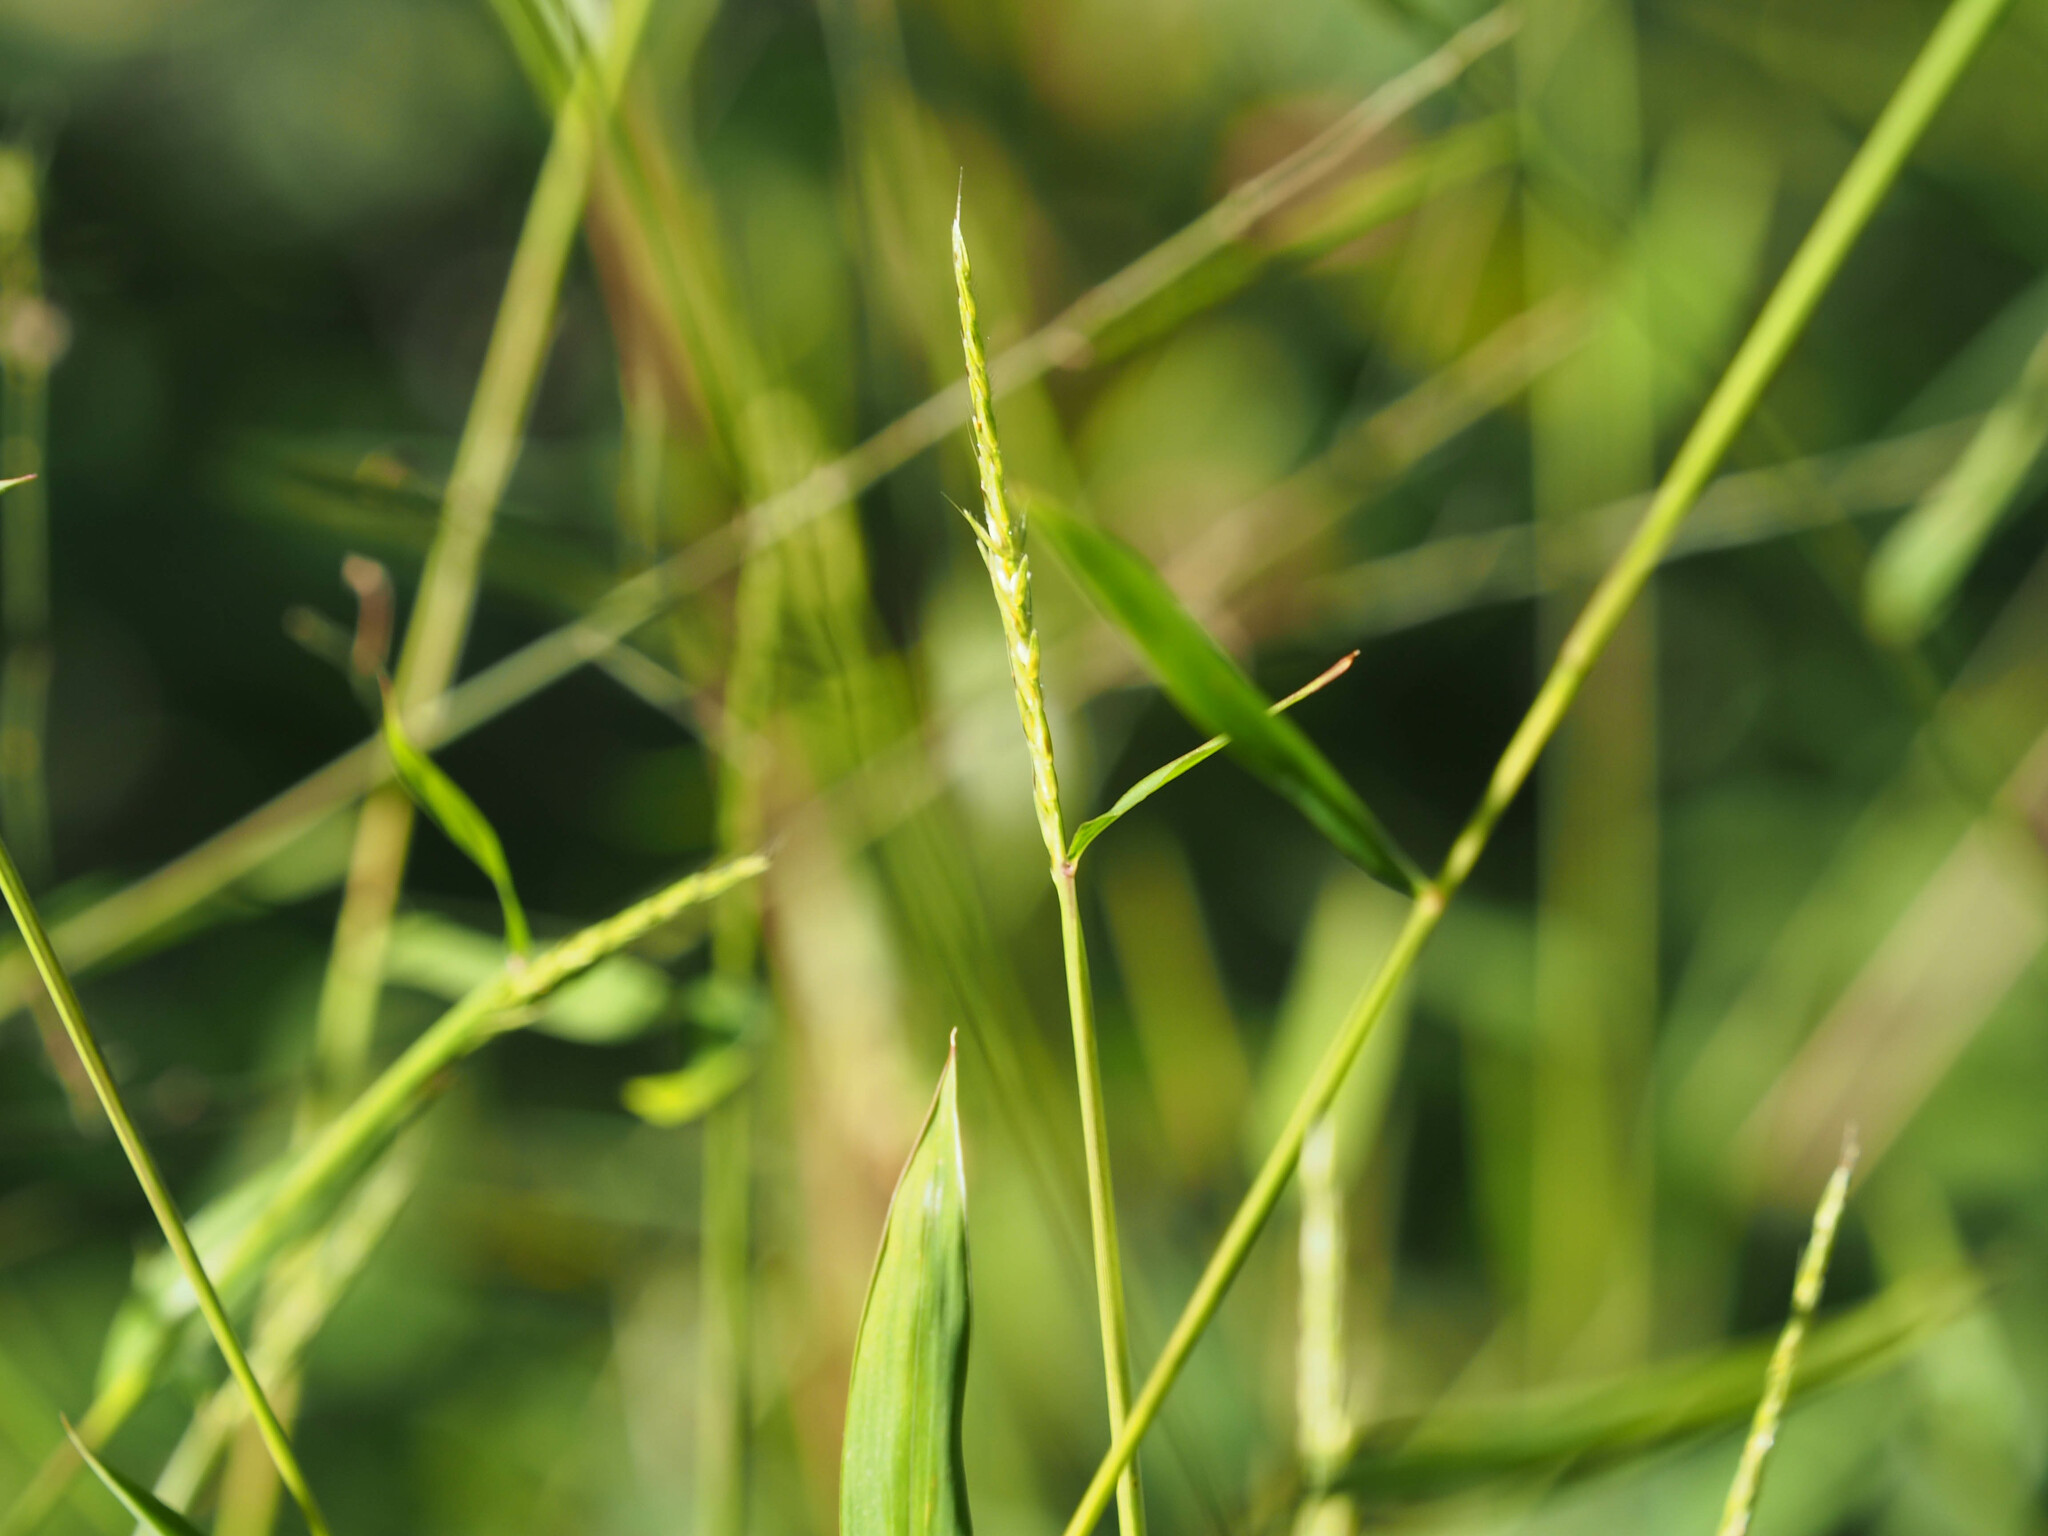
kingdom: Plantae
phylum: Tracheophyta
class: Liliopsida
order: Poales
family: Poaceae
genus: Microstegium
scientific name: Microstegium vimineum
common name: Japanese stiltgrass
